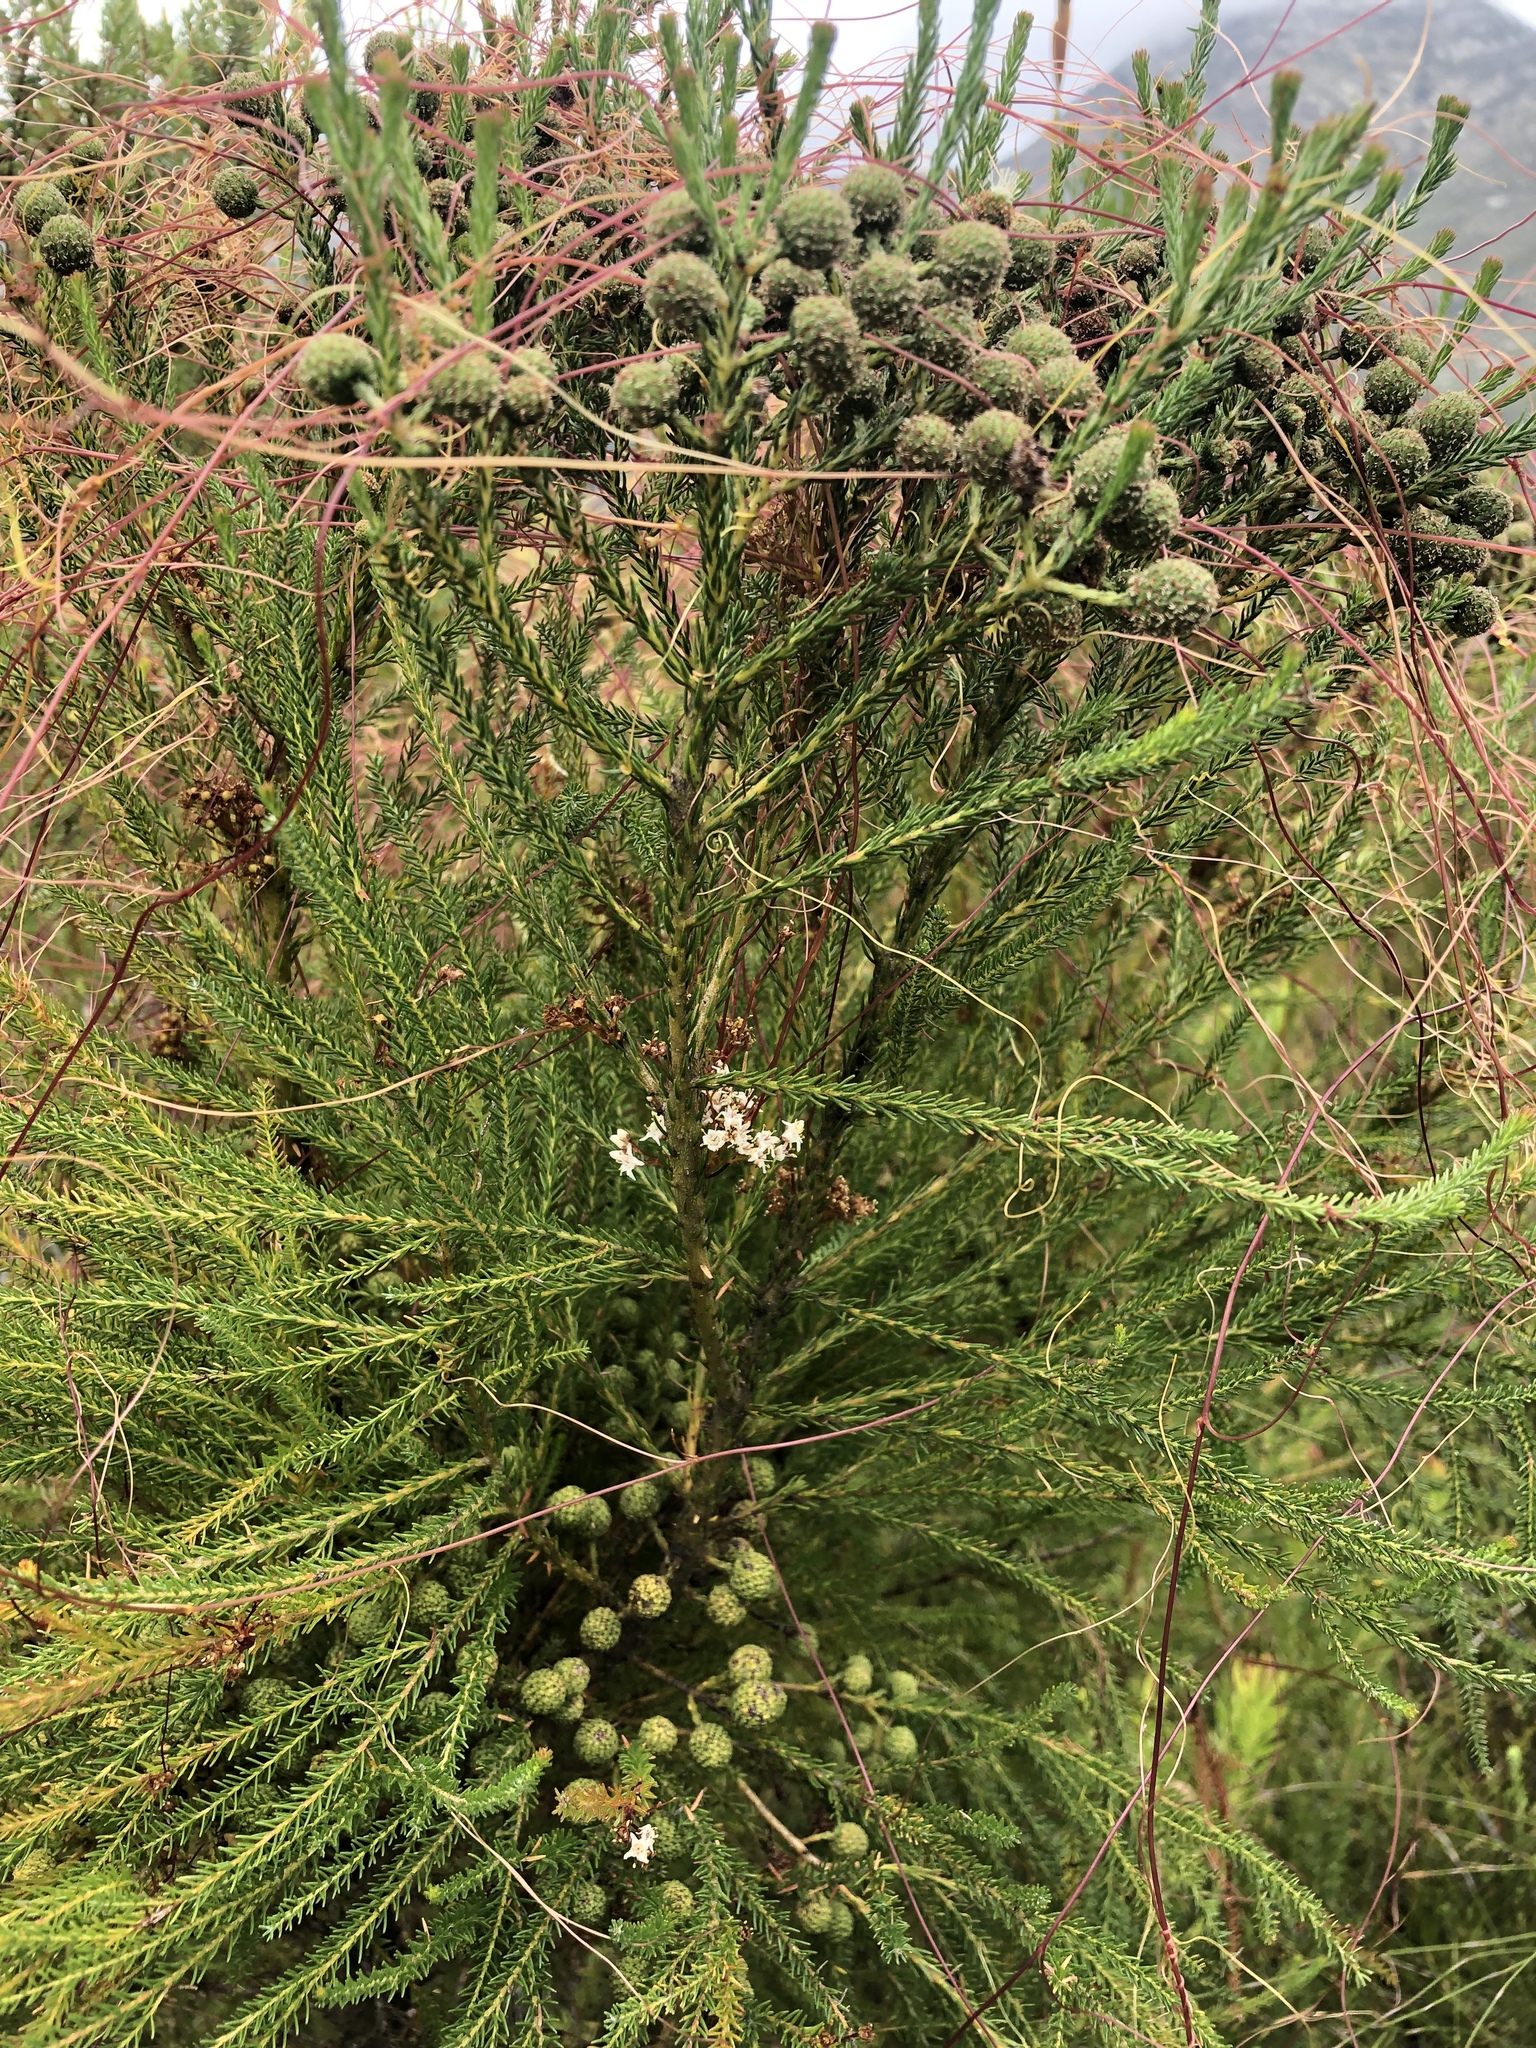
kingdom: Plantae
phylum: Tracheophyta
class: Magnoliopsida
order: Solanales
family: Convolvulaceae
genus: Cuscuta
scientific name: Cuscuta africana
